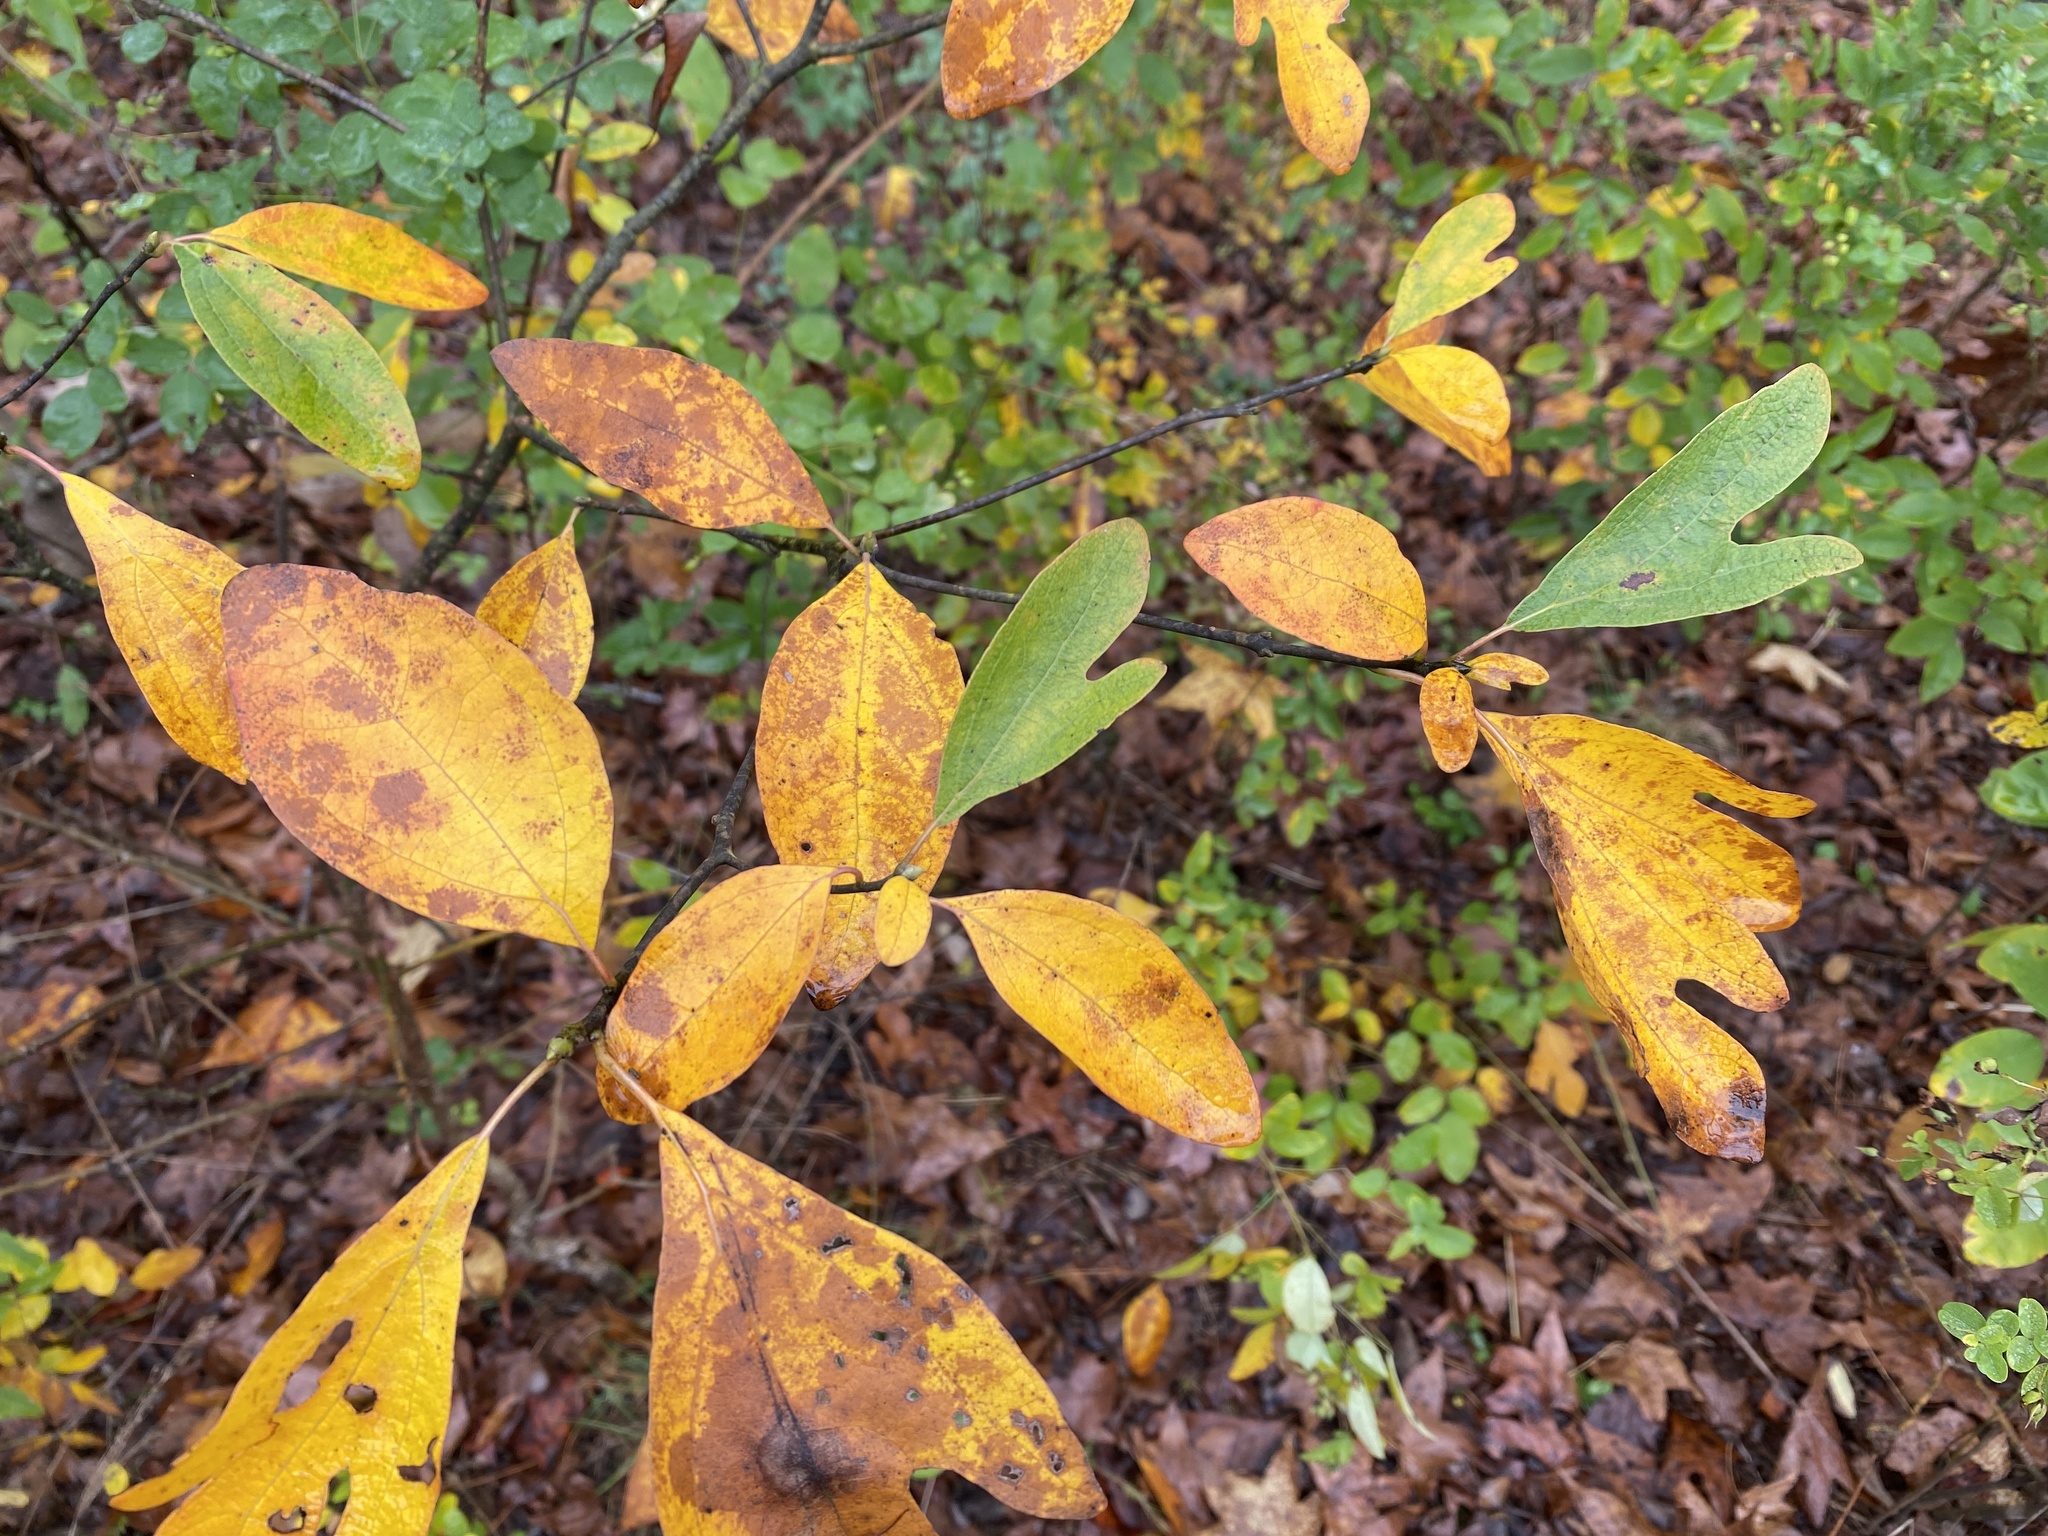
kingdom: Plantae
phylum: Tracheophyta
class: Magnoliopsida
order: Laurales
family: Lauraceae
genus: Sassafras
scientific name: Sassafras albidum
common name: Sassafras
